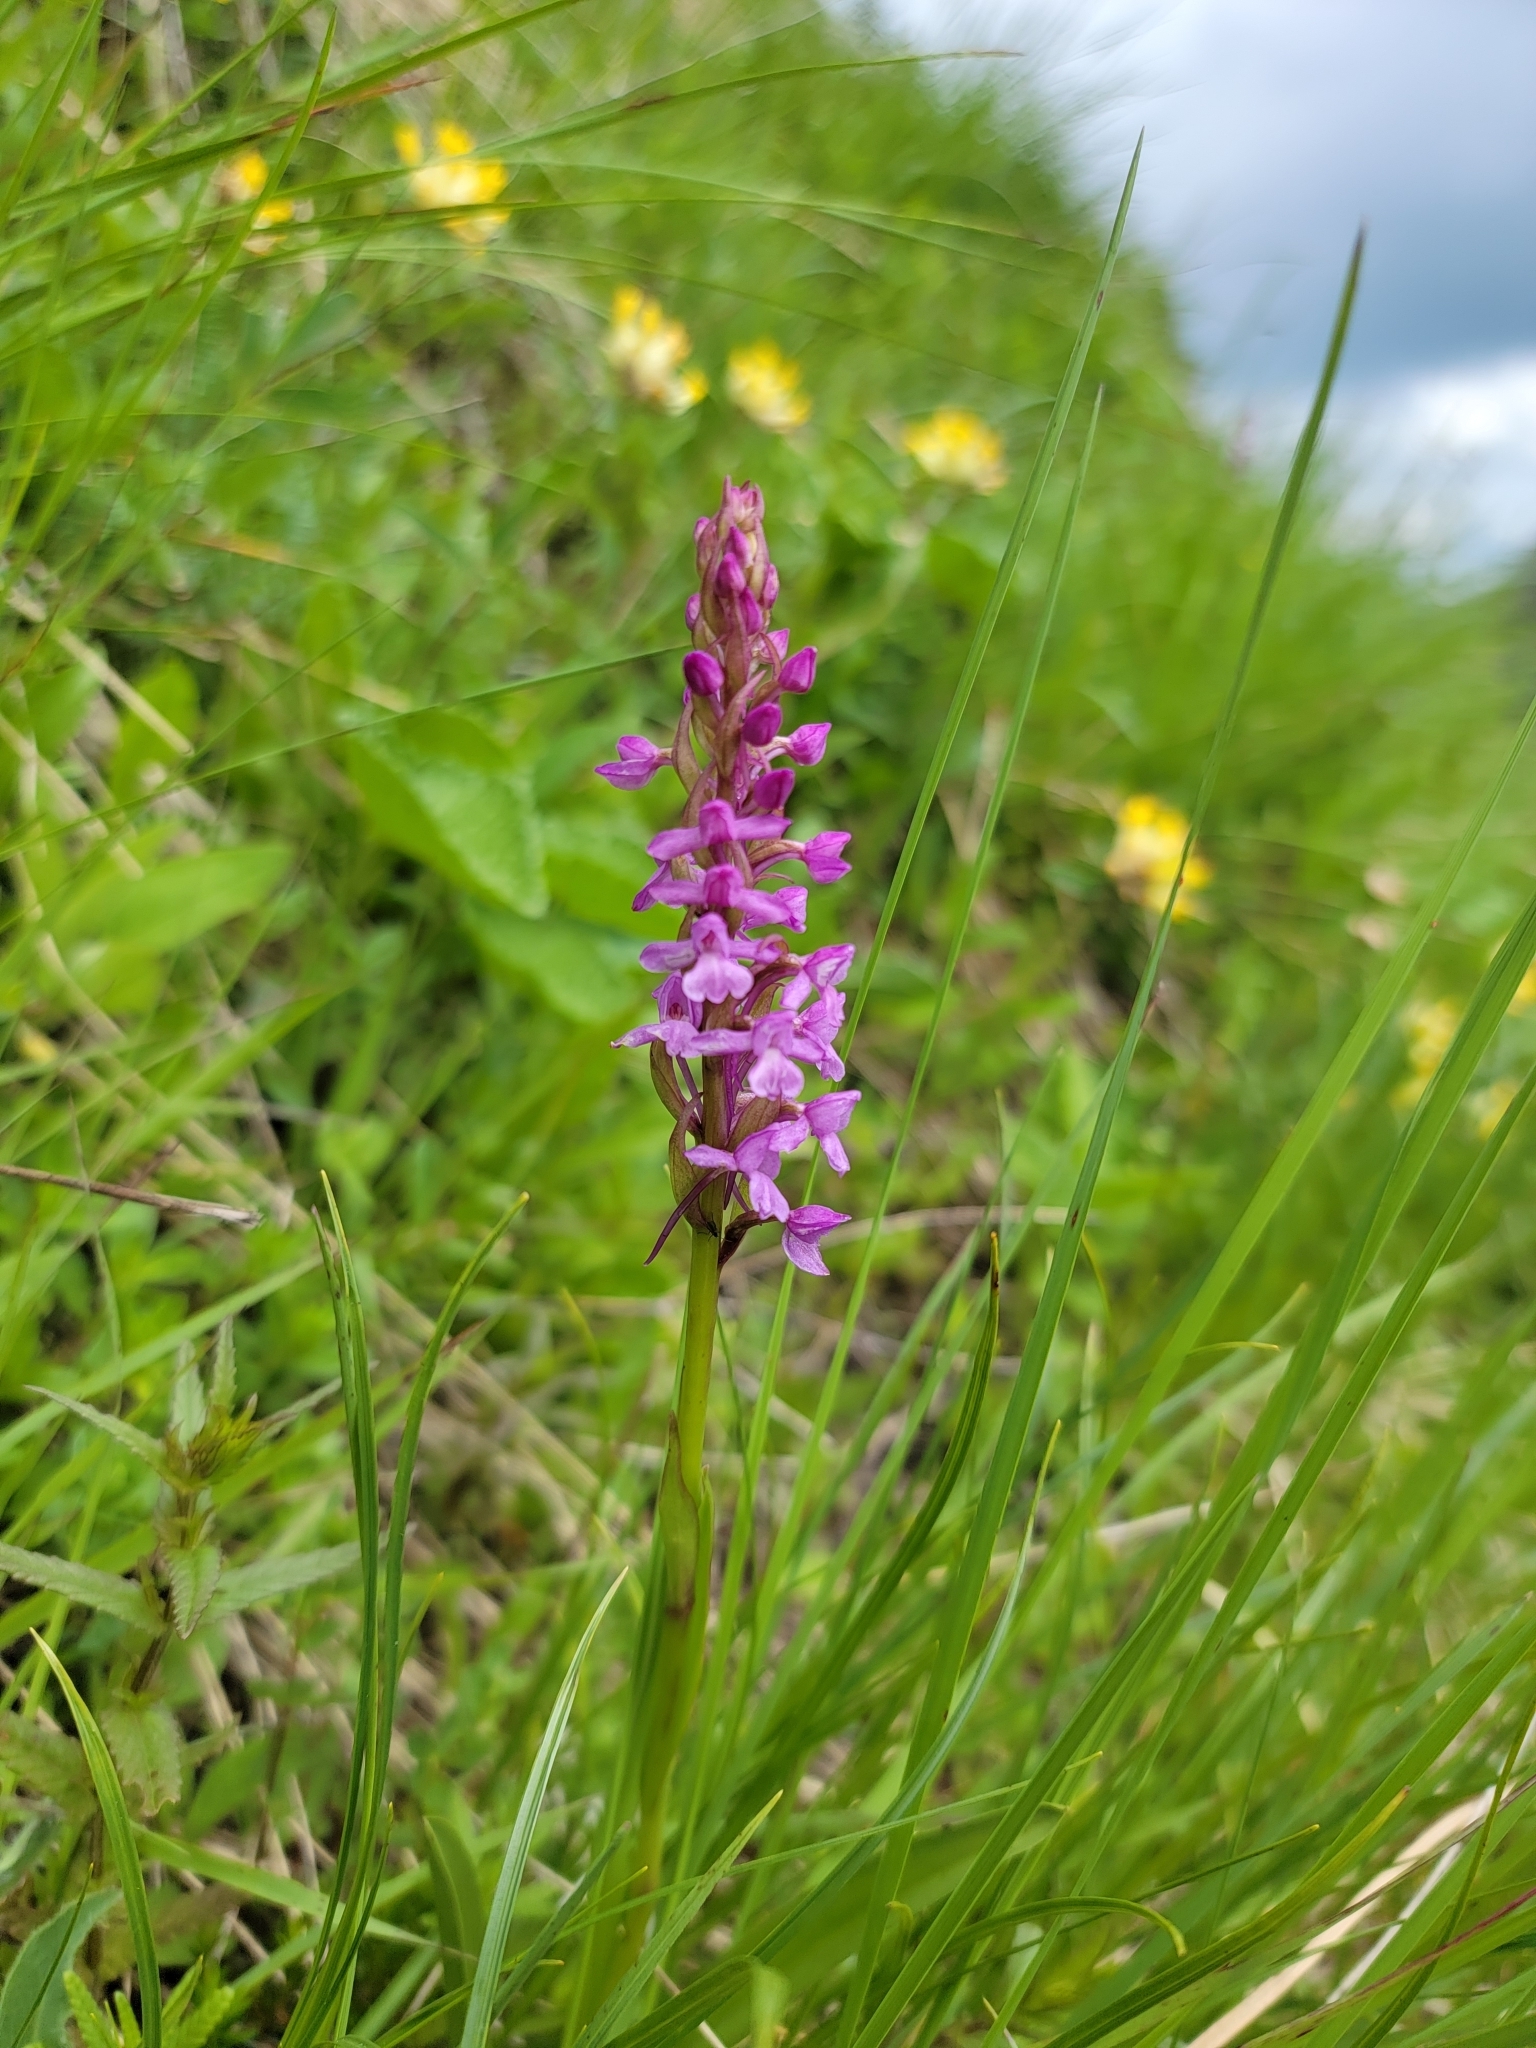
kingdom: Plantae
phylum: Tracheophyta
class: Liliopsida
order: Asparagales
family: Orchidaceae
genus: Gymnadenia
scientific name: Gymnadenia conopsea
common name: Fragrant orchid
